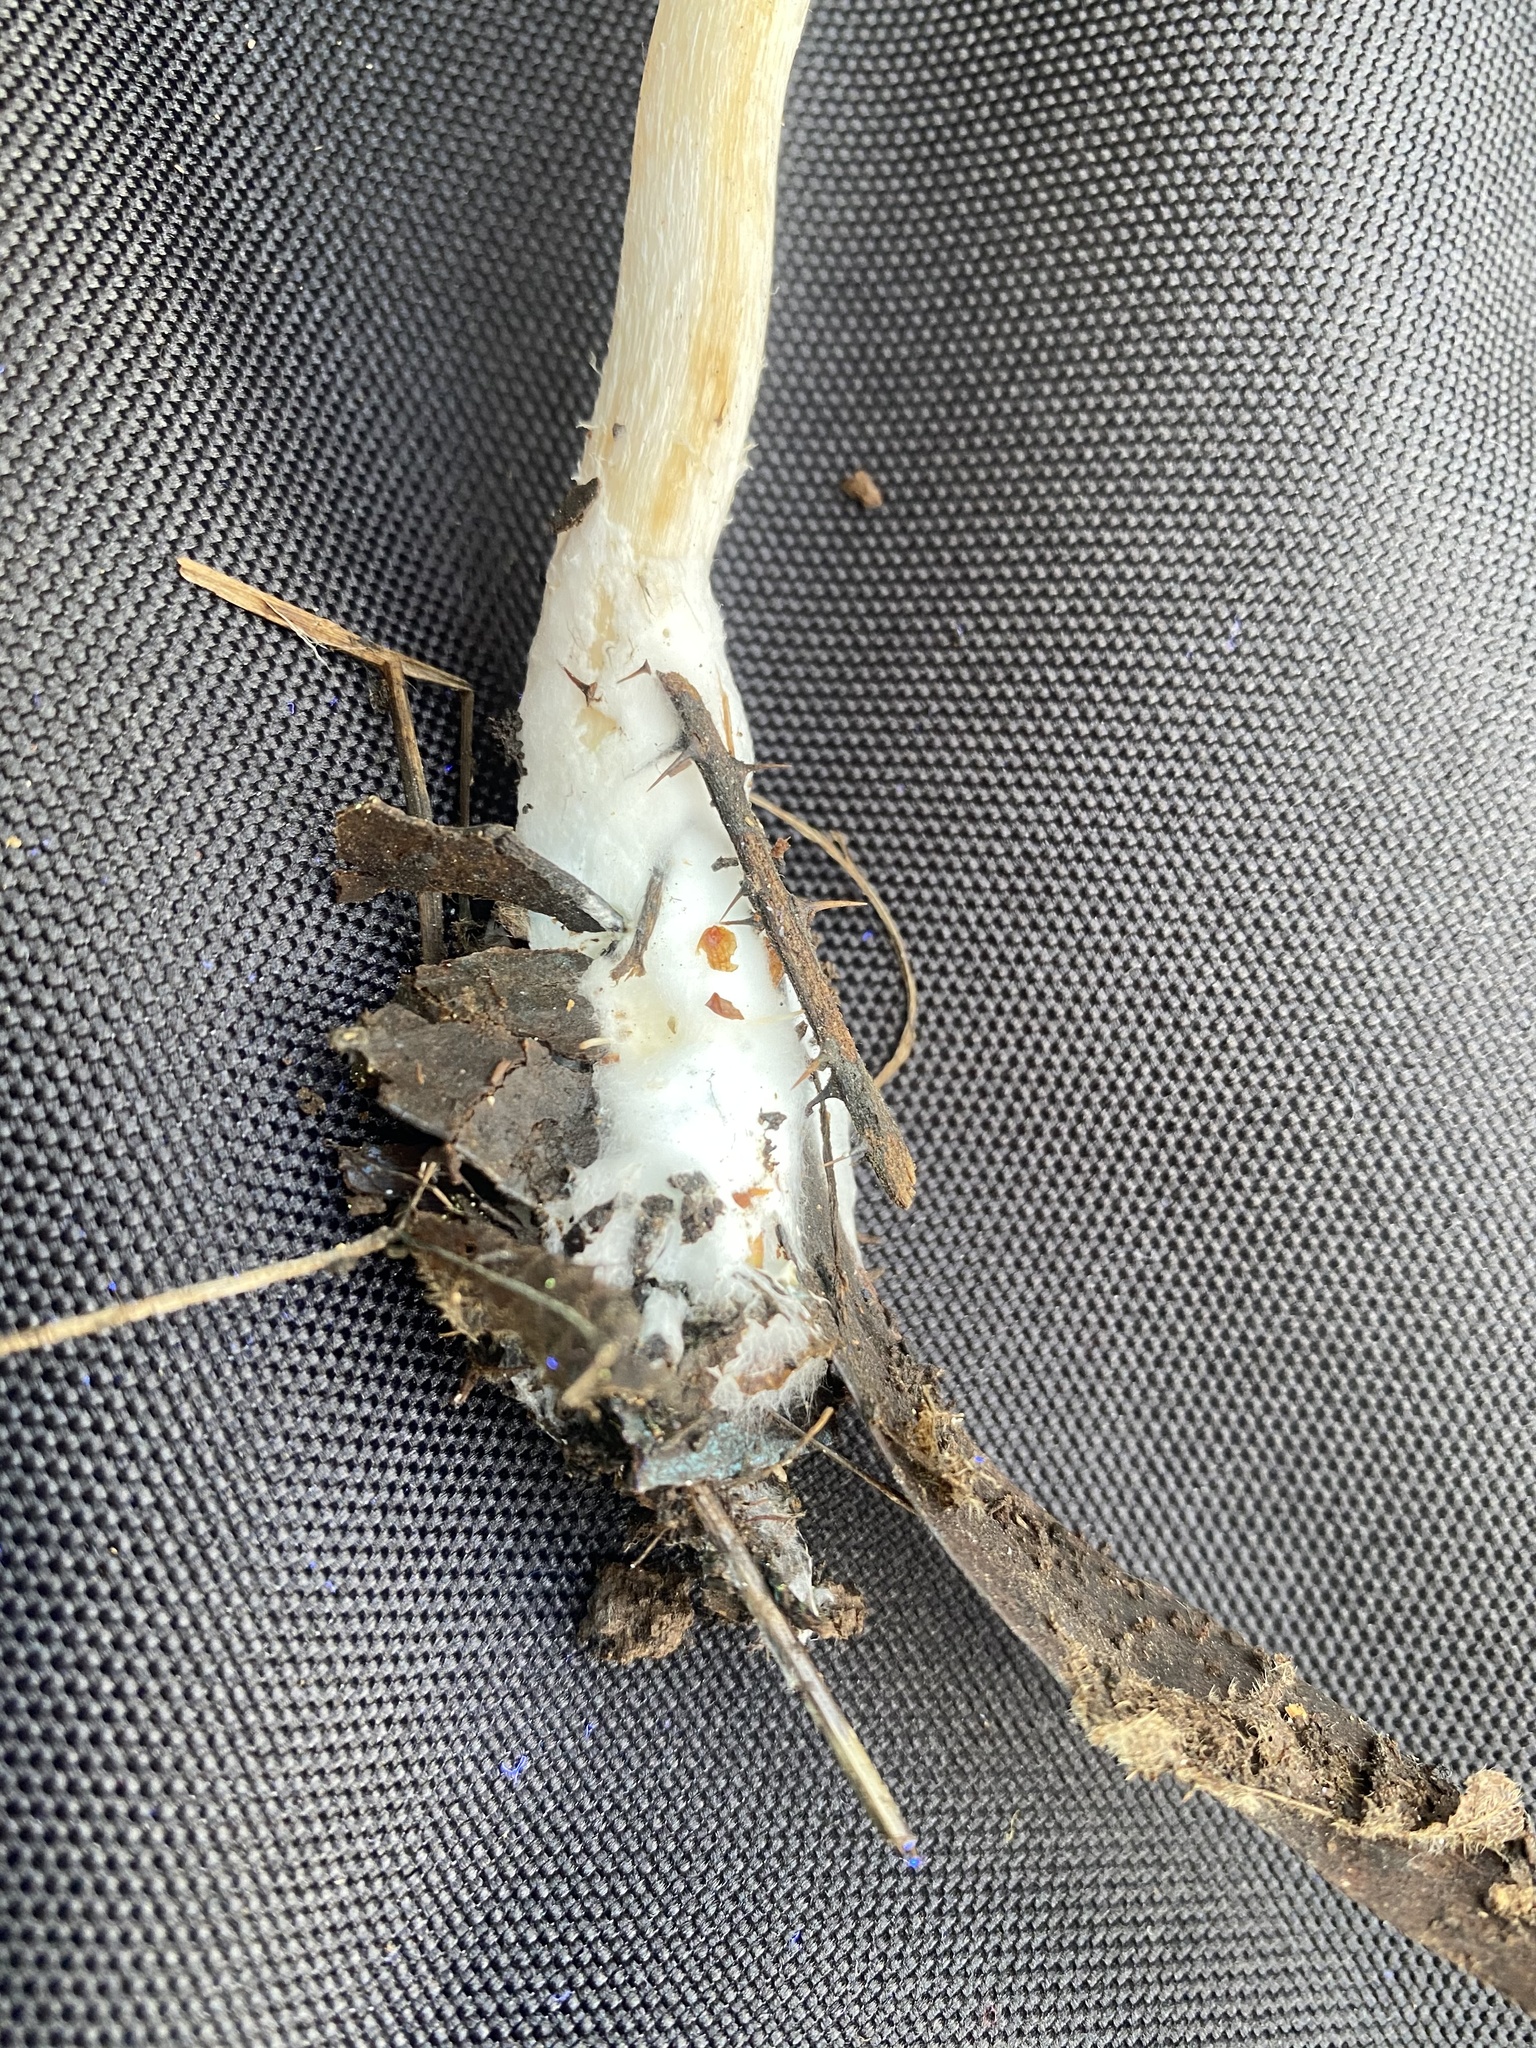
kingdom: Fungi
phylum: Basidiomycota
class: Agaricomycetes
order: Agaricales
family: Psathyrellaceae
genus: Psathyrella
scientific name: Psathyrella longipes
